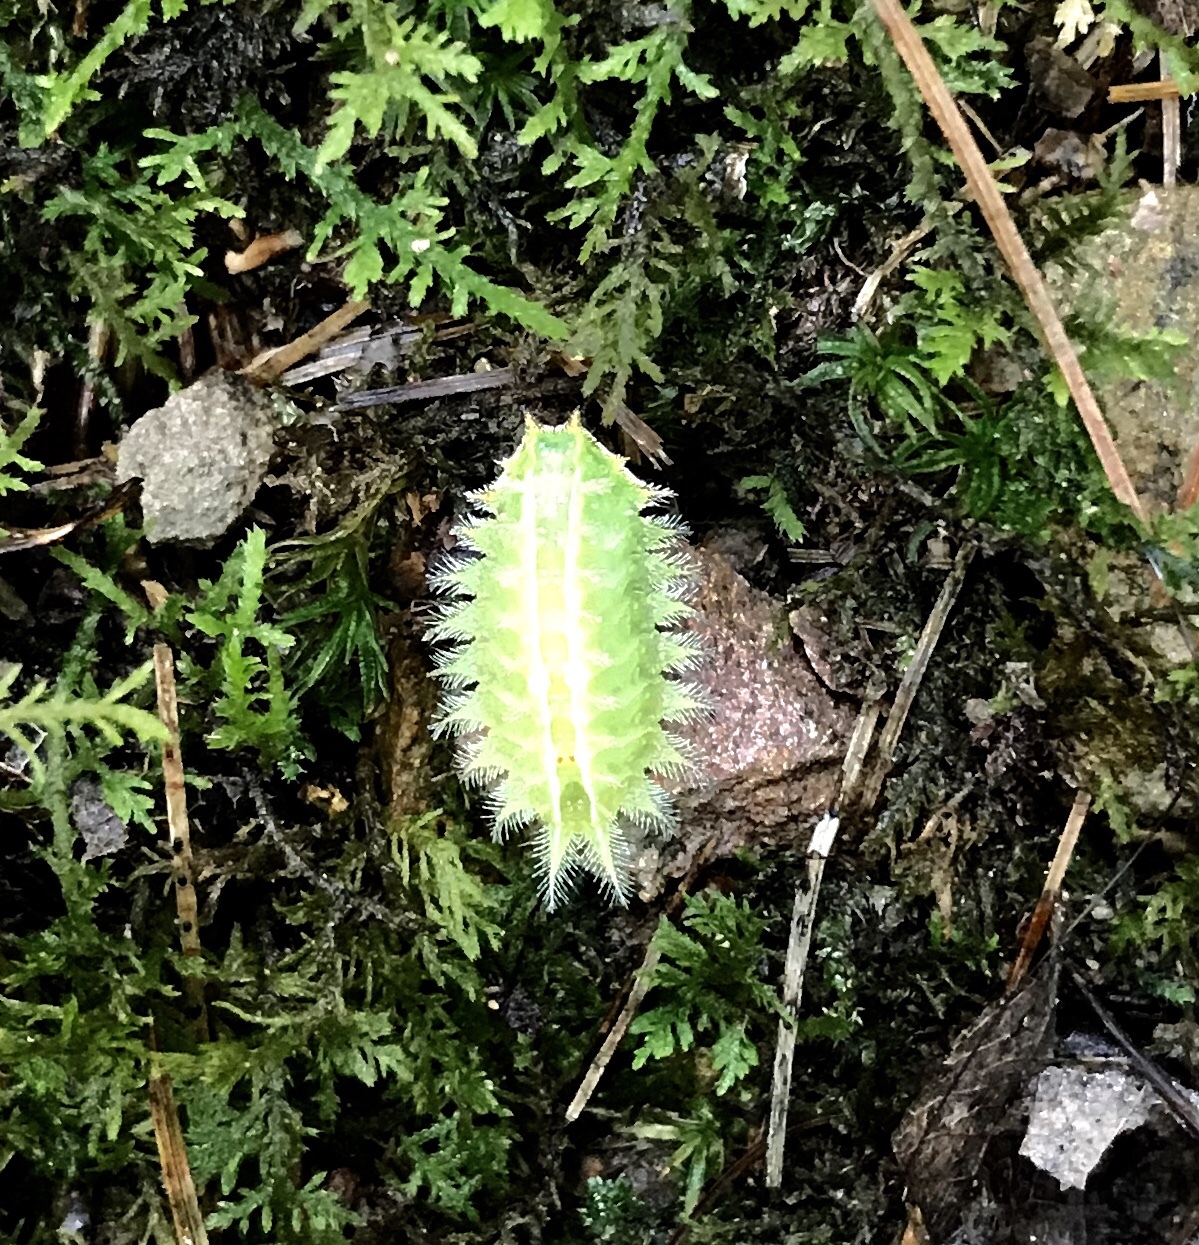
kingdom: Animalia
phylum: Arthropoda
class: Insecta
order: Lepidoptera
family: Limacodidae
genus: Isa
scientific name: Isa textula
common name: Crowned slug moth
